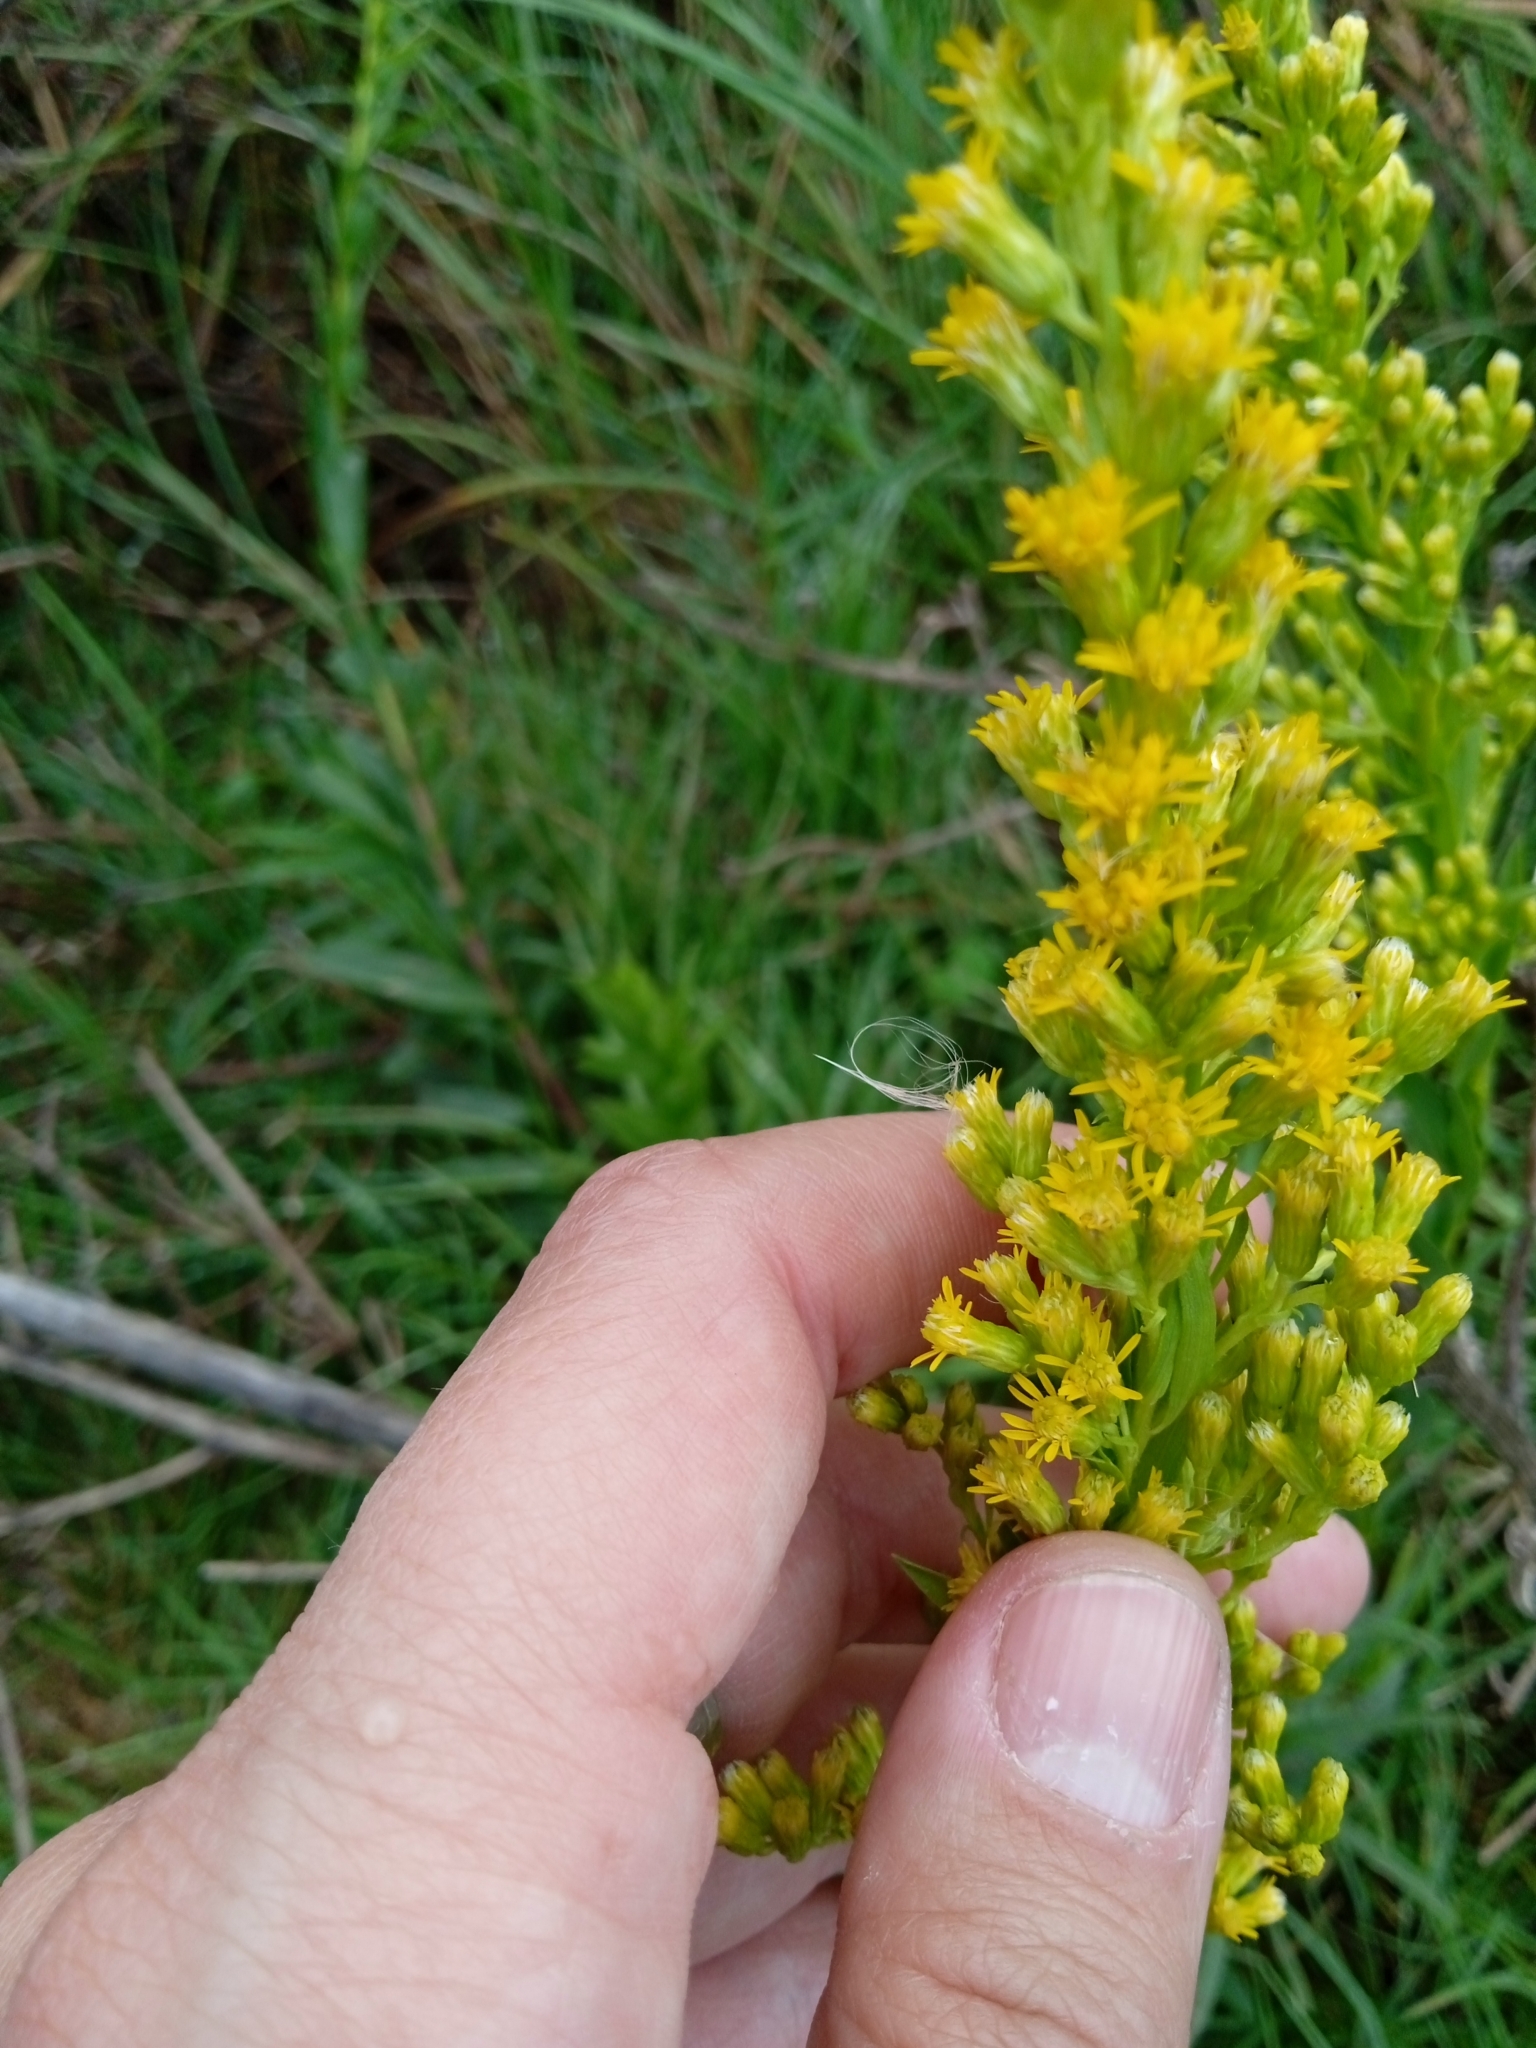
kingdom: Plantae
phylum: Tracheophyta
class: Magnoliopsida
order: Asterales
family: Asteraceae
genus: Solidago
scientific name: Solidago chilensis
